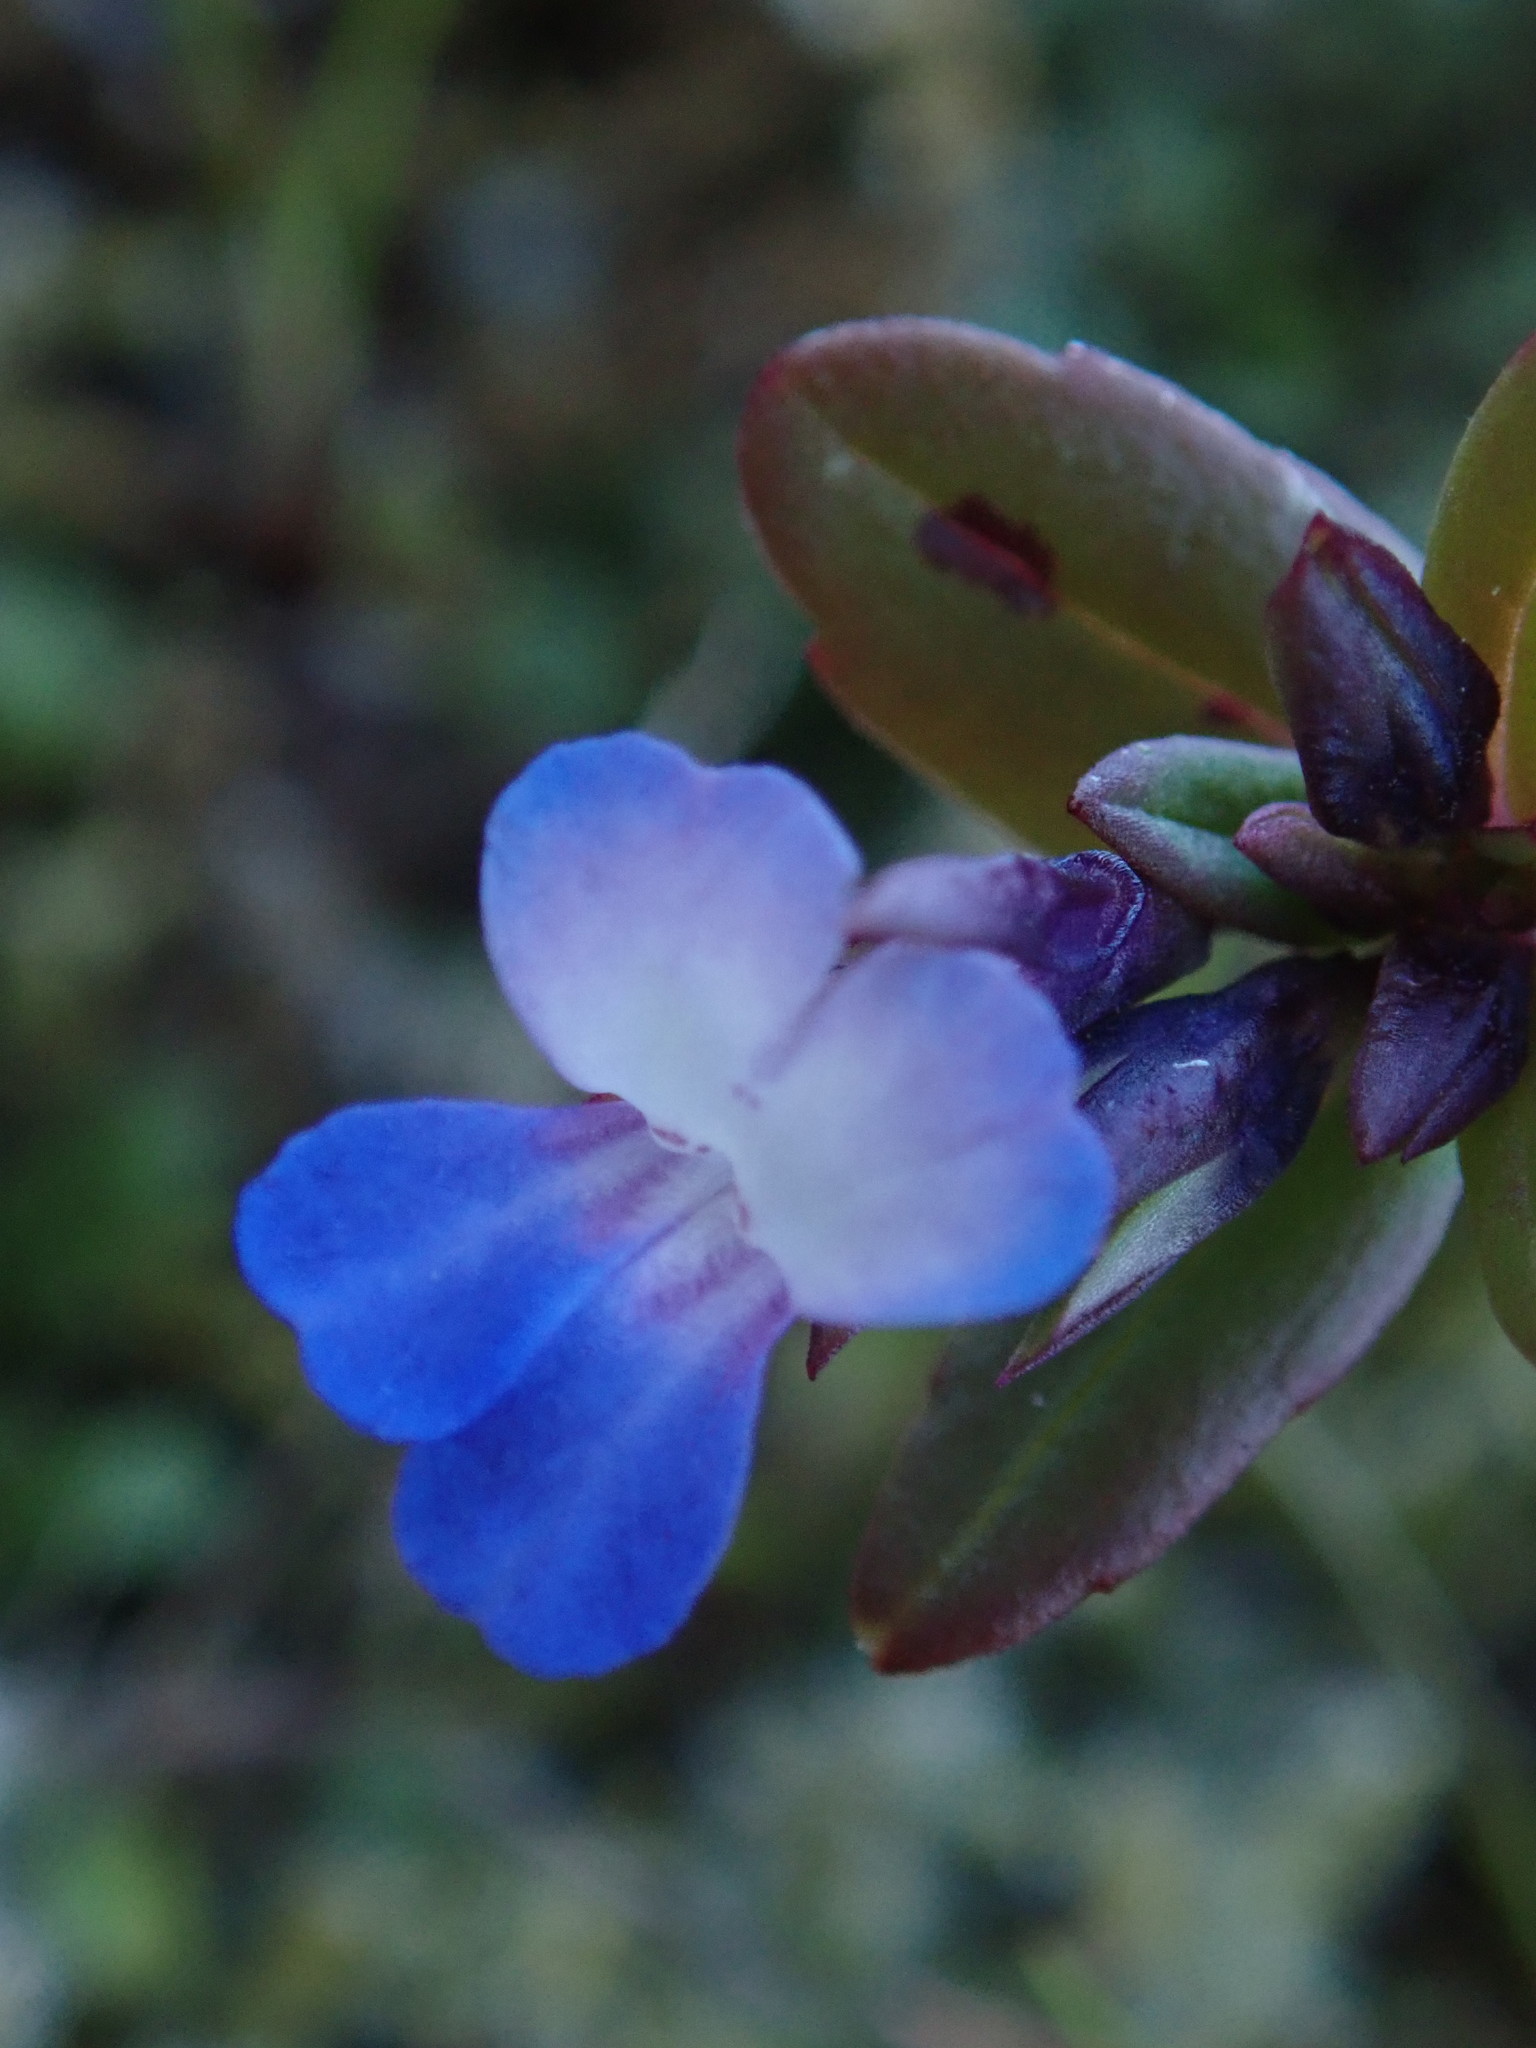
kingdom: Plantae
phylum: Tracheophyta
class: Magnoliopsida
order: Lamiales
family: Plantaginaceae
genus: Collinsia
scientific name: Collinsia parviflora
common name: Blue-lips
